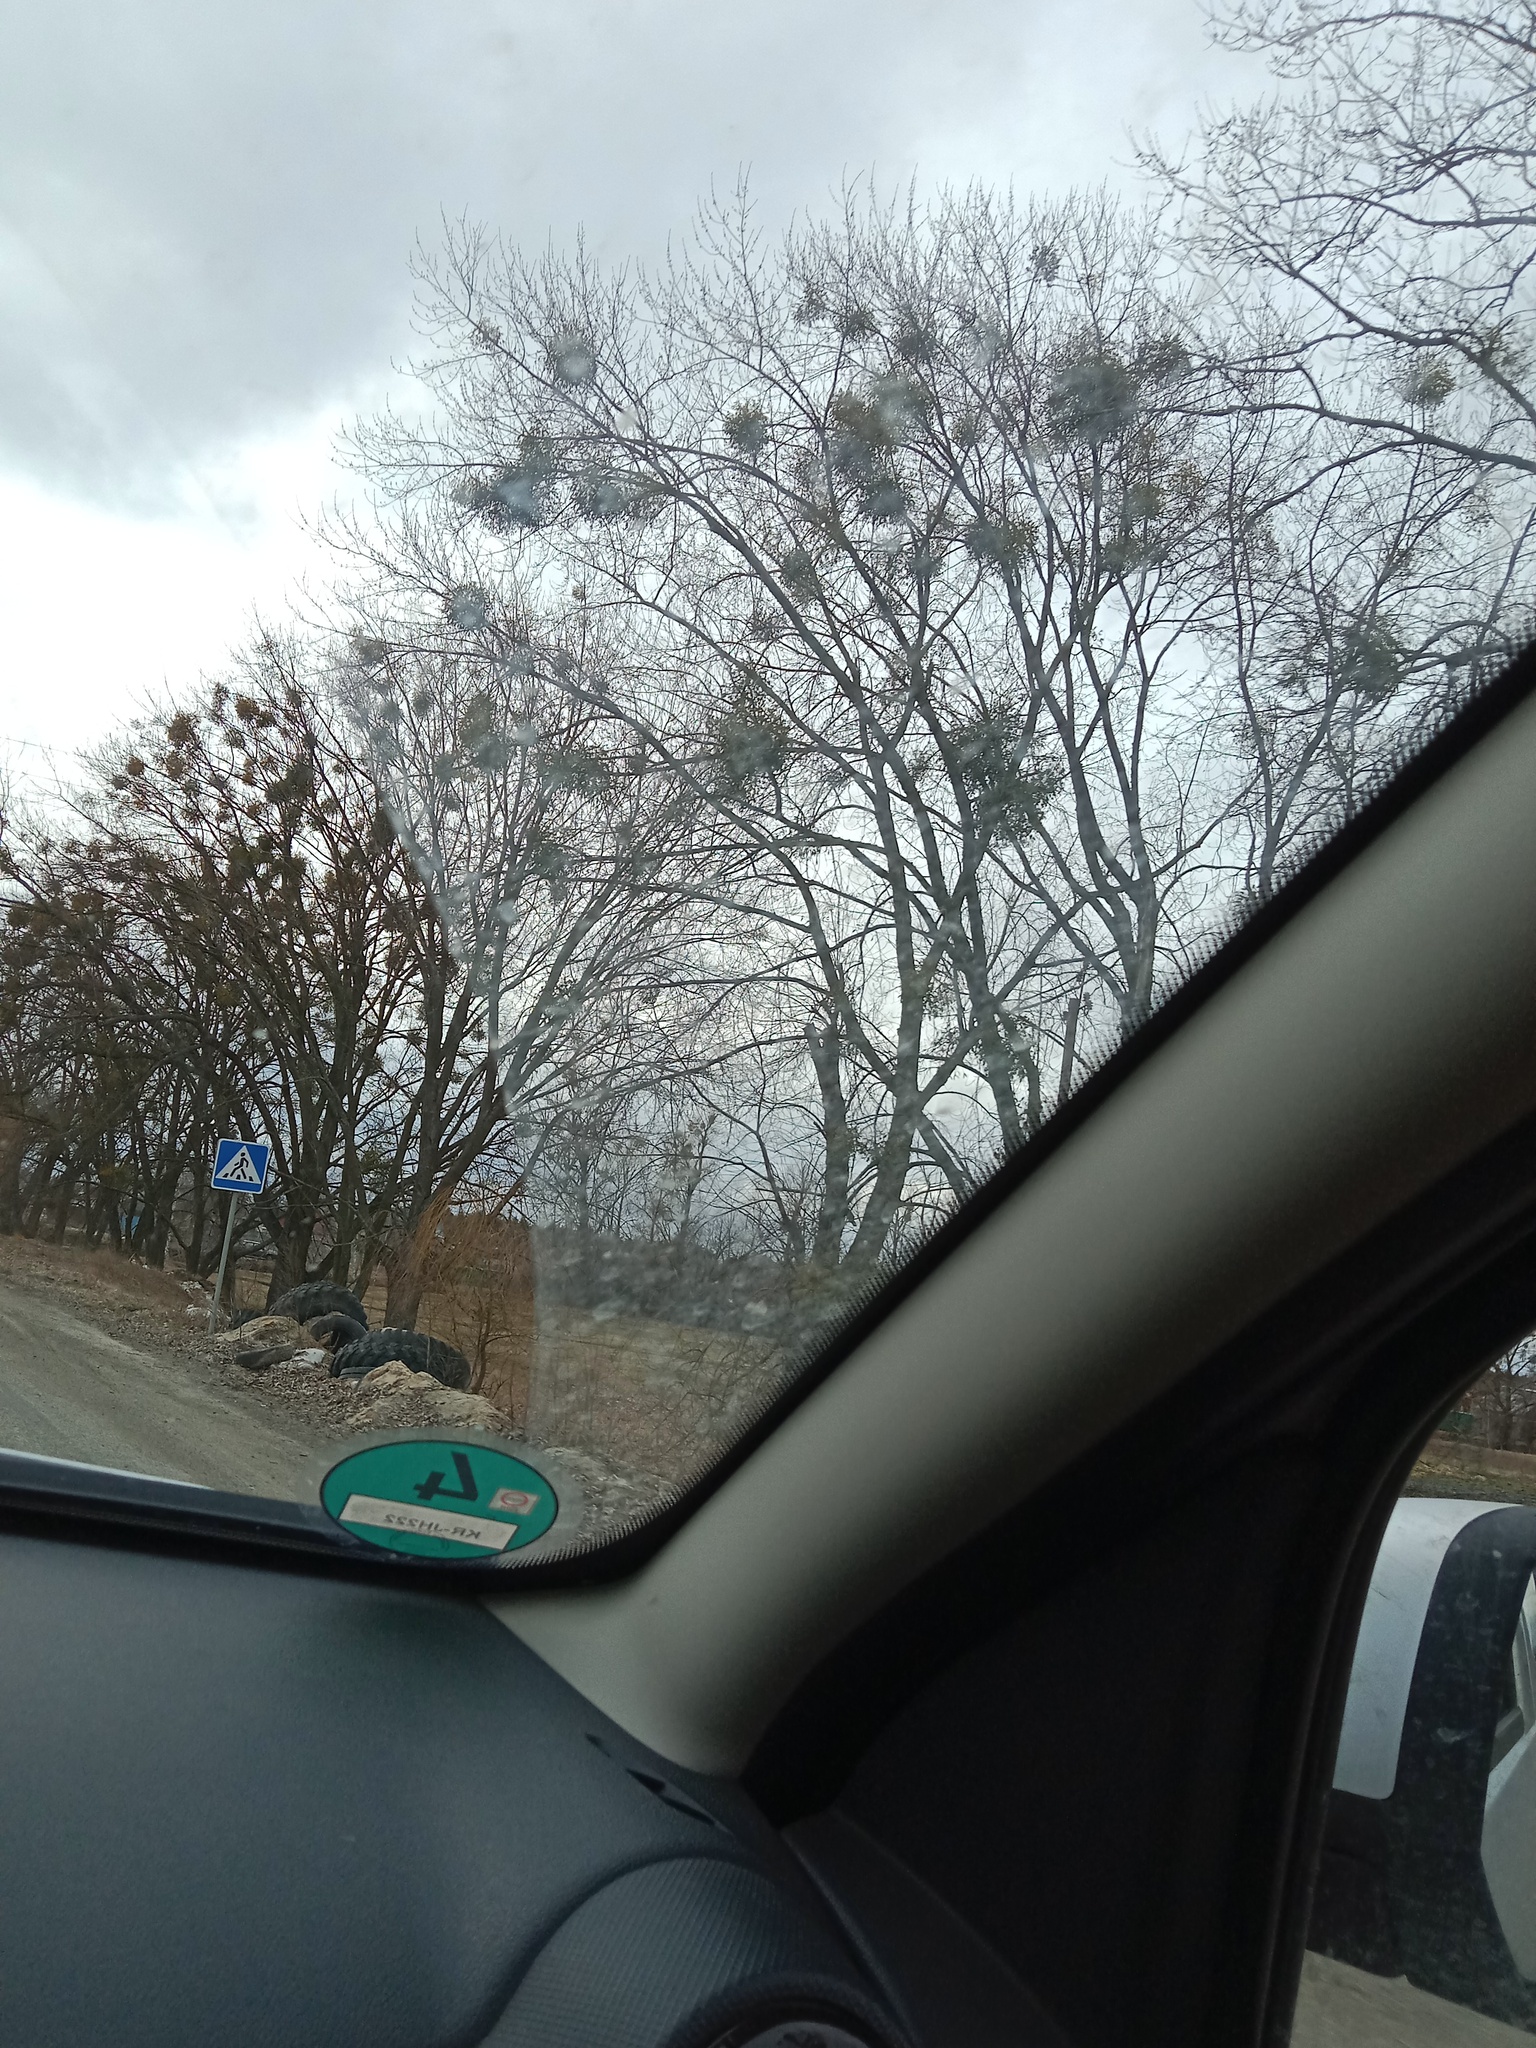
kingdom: Plantae
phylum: Tracheophyta
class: Magnoliopsida
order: Santalales
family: Viscaceae
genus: Viscum
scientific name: Viscum album
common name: Mistletoe
